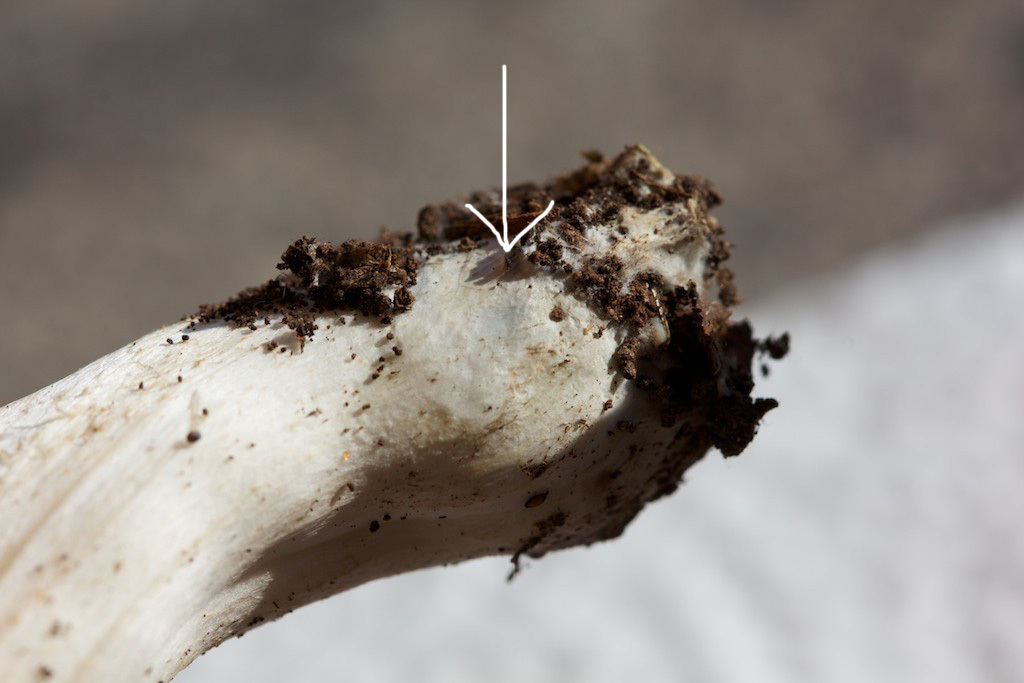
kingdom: Fungi
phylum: Basidiomycota
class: Agaricomycetes
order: Agaricales
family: Tricholomataceae
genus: Tricholoma
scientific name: Tricholoma orirubens
